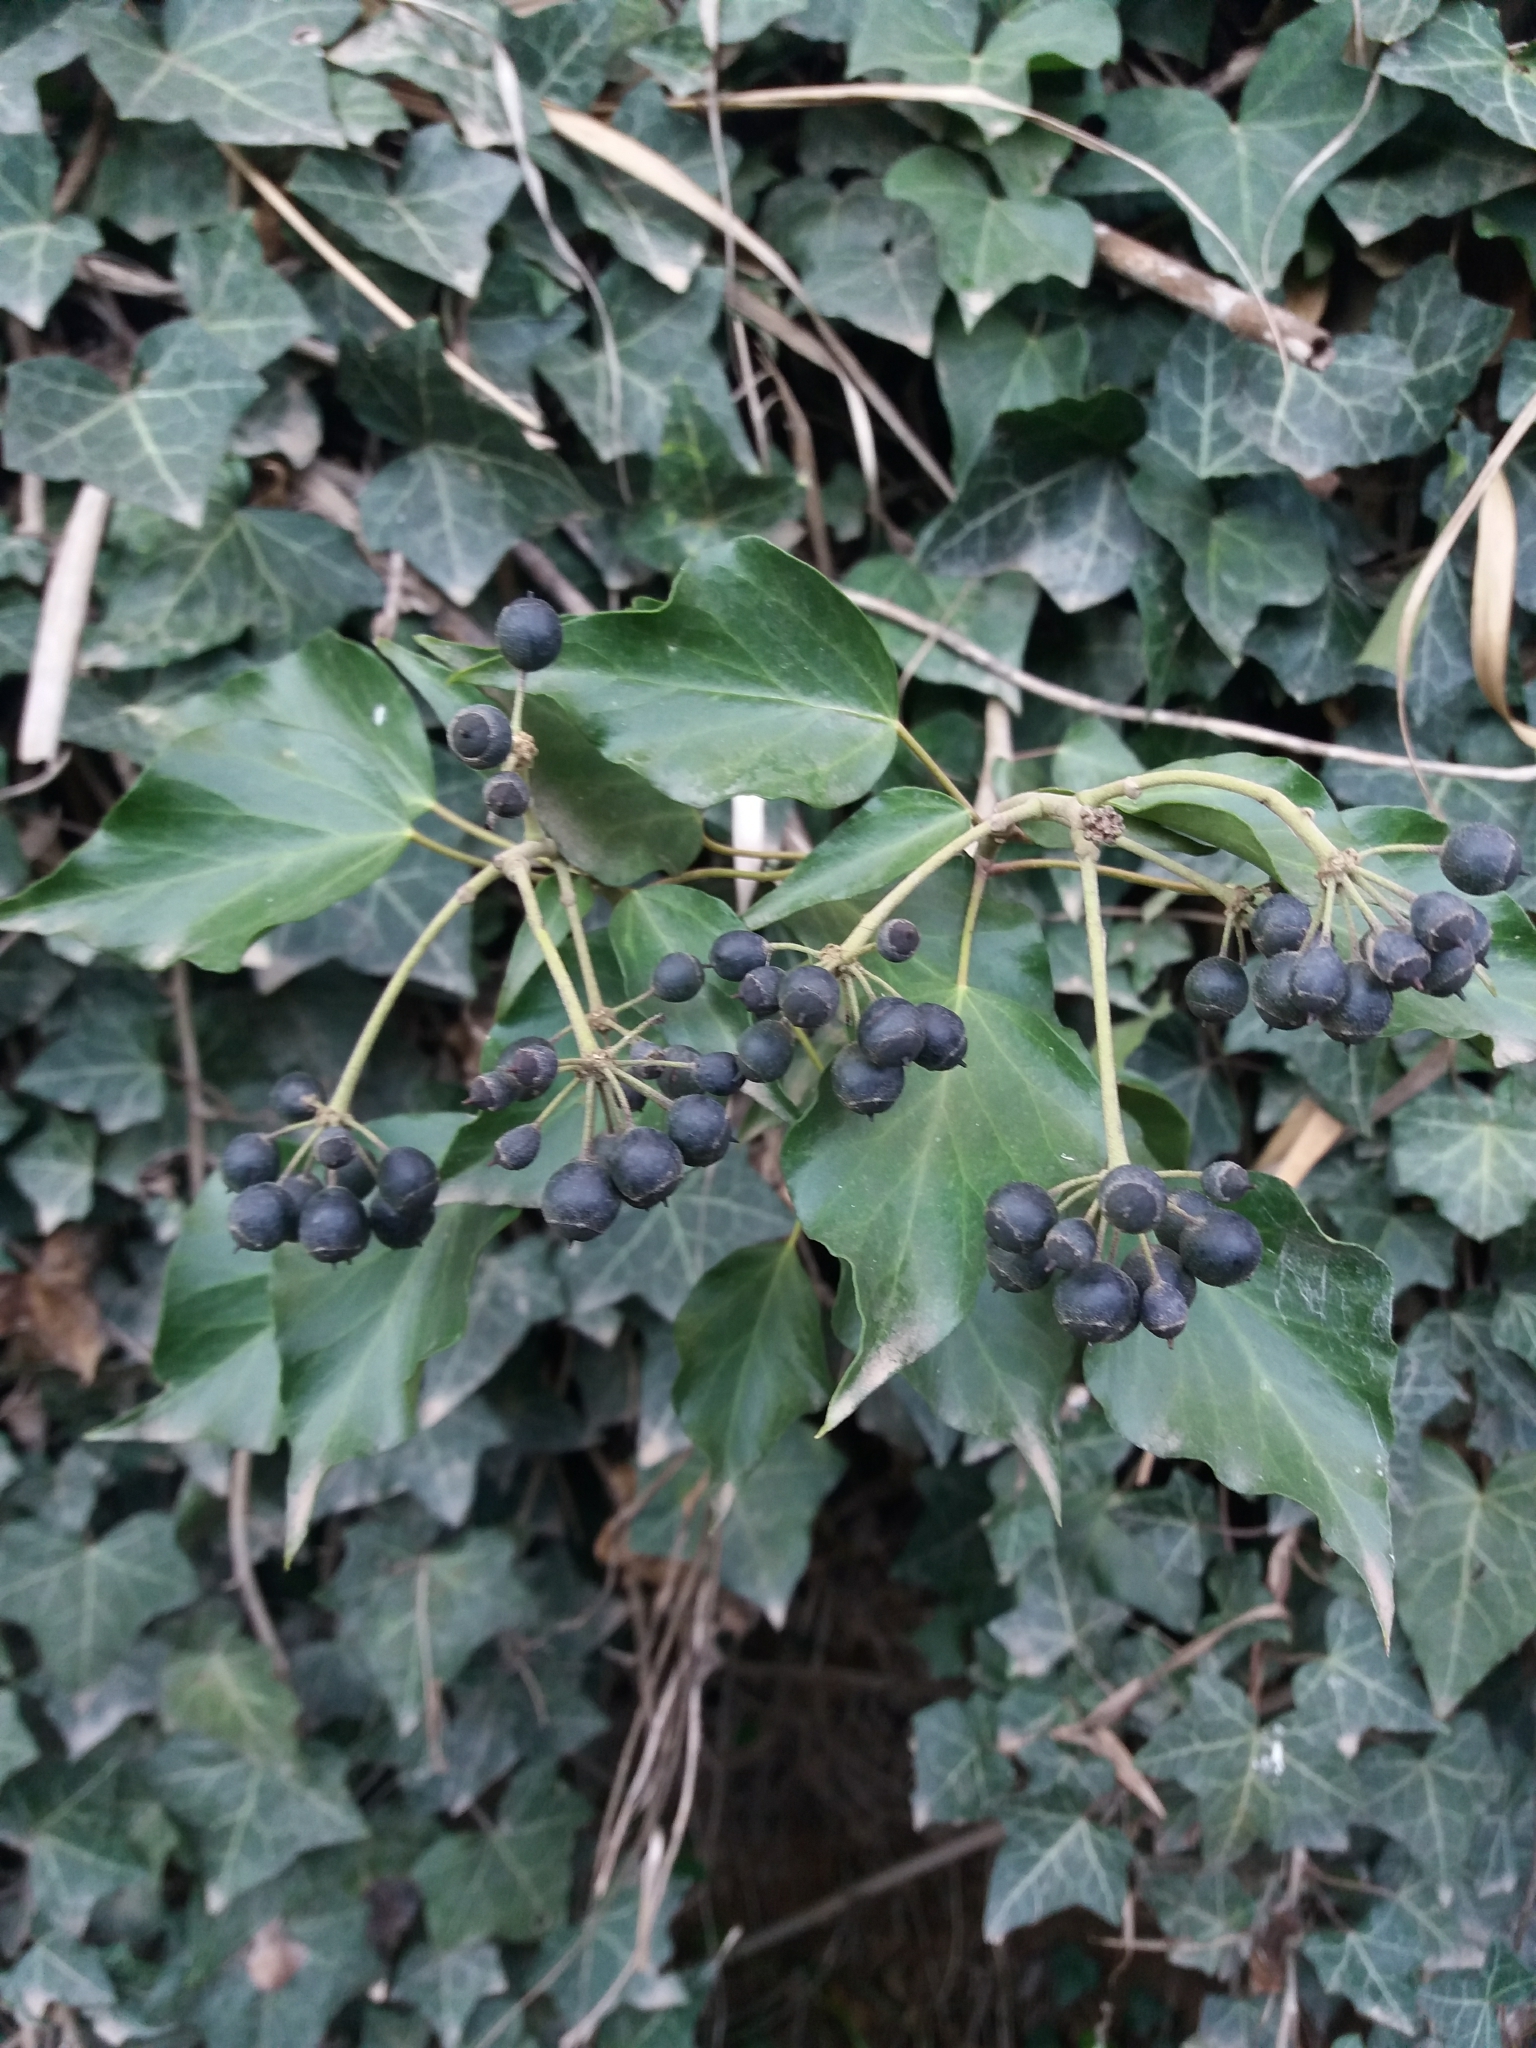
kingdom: Plantae
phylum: Tracheophyta
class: Magnoliopsida
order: Apiales
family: Araliaceae
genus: Hedera
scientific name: Hedera helix
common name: Ivy
